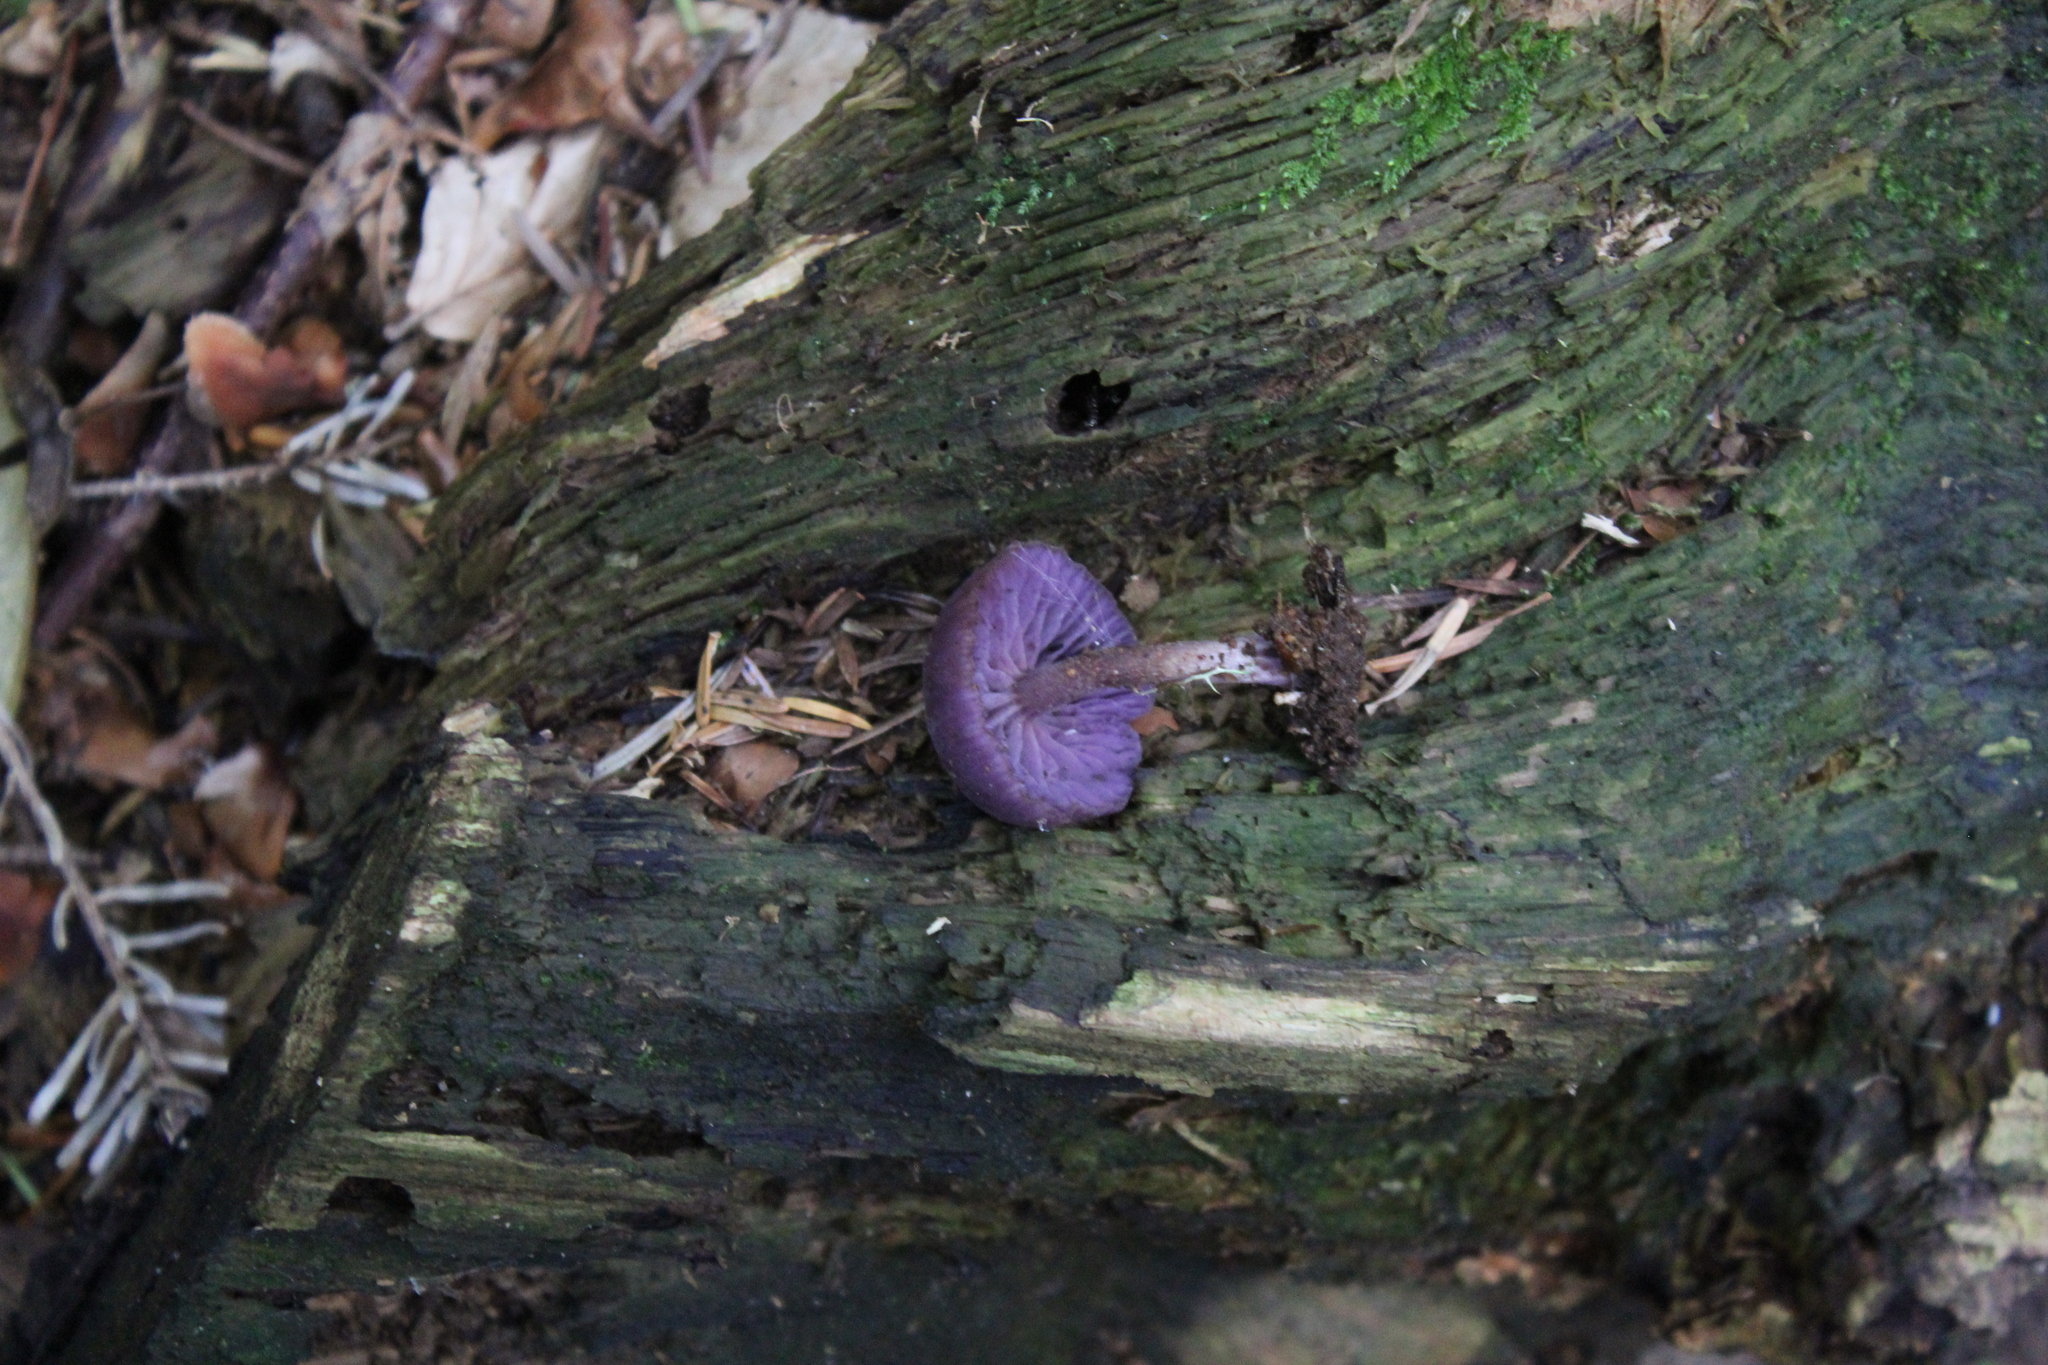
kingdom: Fungi
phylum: Basidiomycota
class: Agaricomycetes
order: Agaricales
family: Hydnangiaceae
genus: Laccaria
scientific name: Laccaria amethystina
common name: Amethyst deceiver
